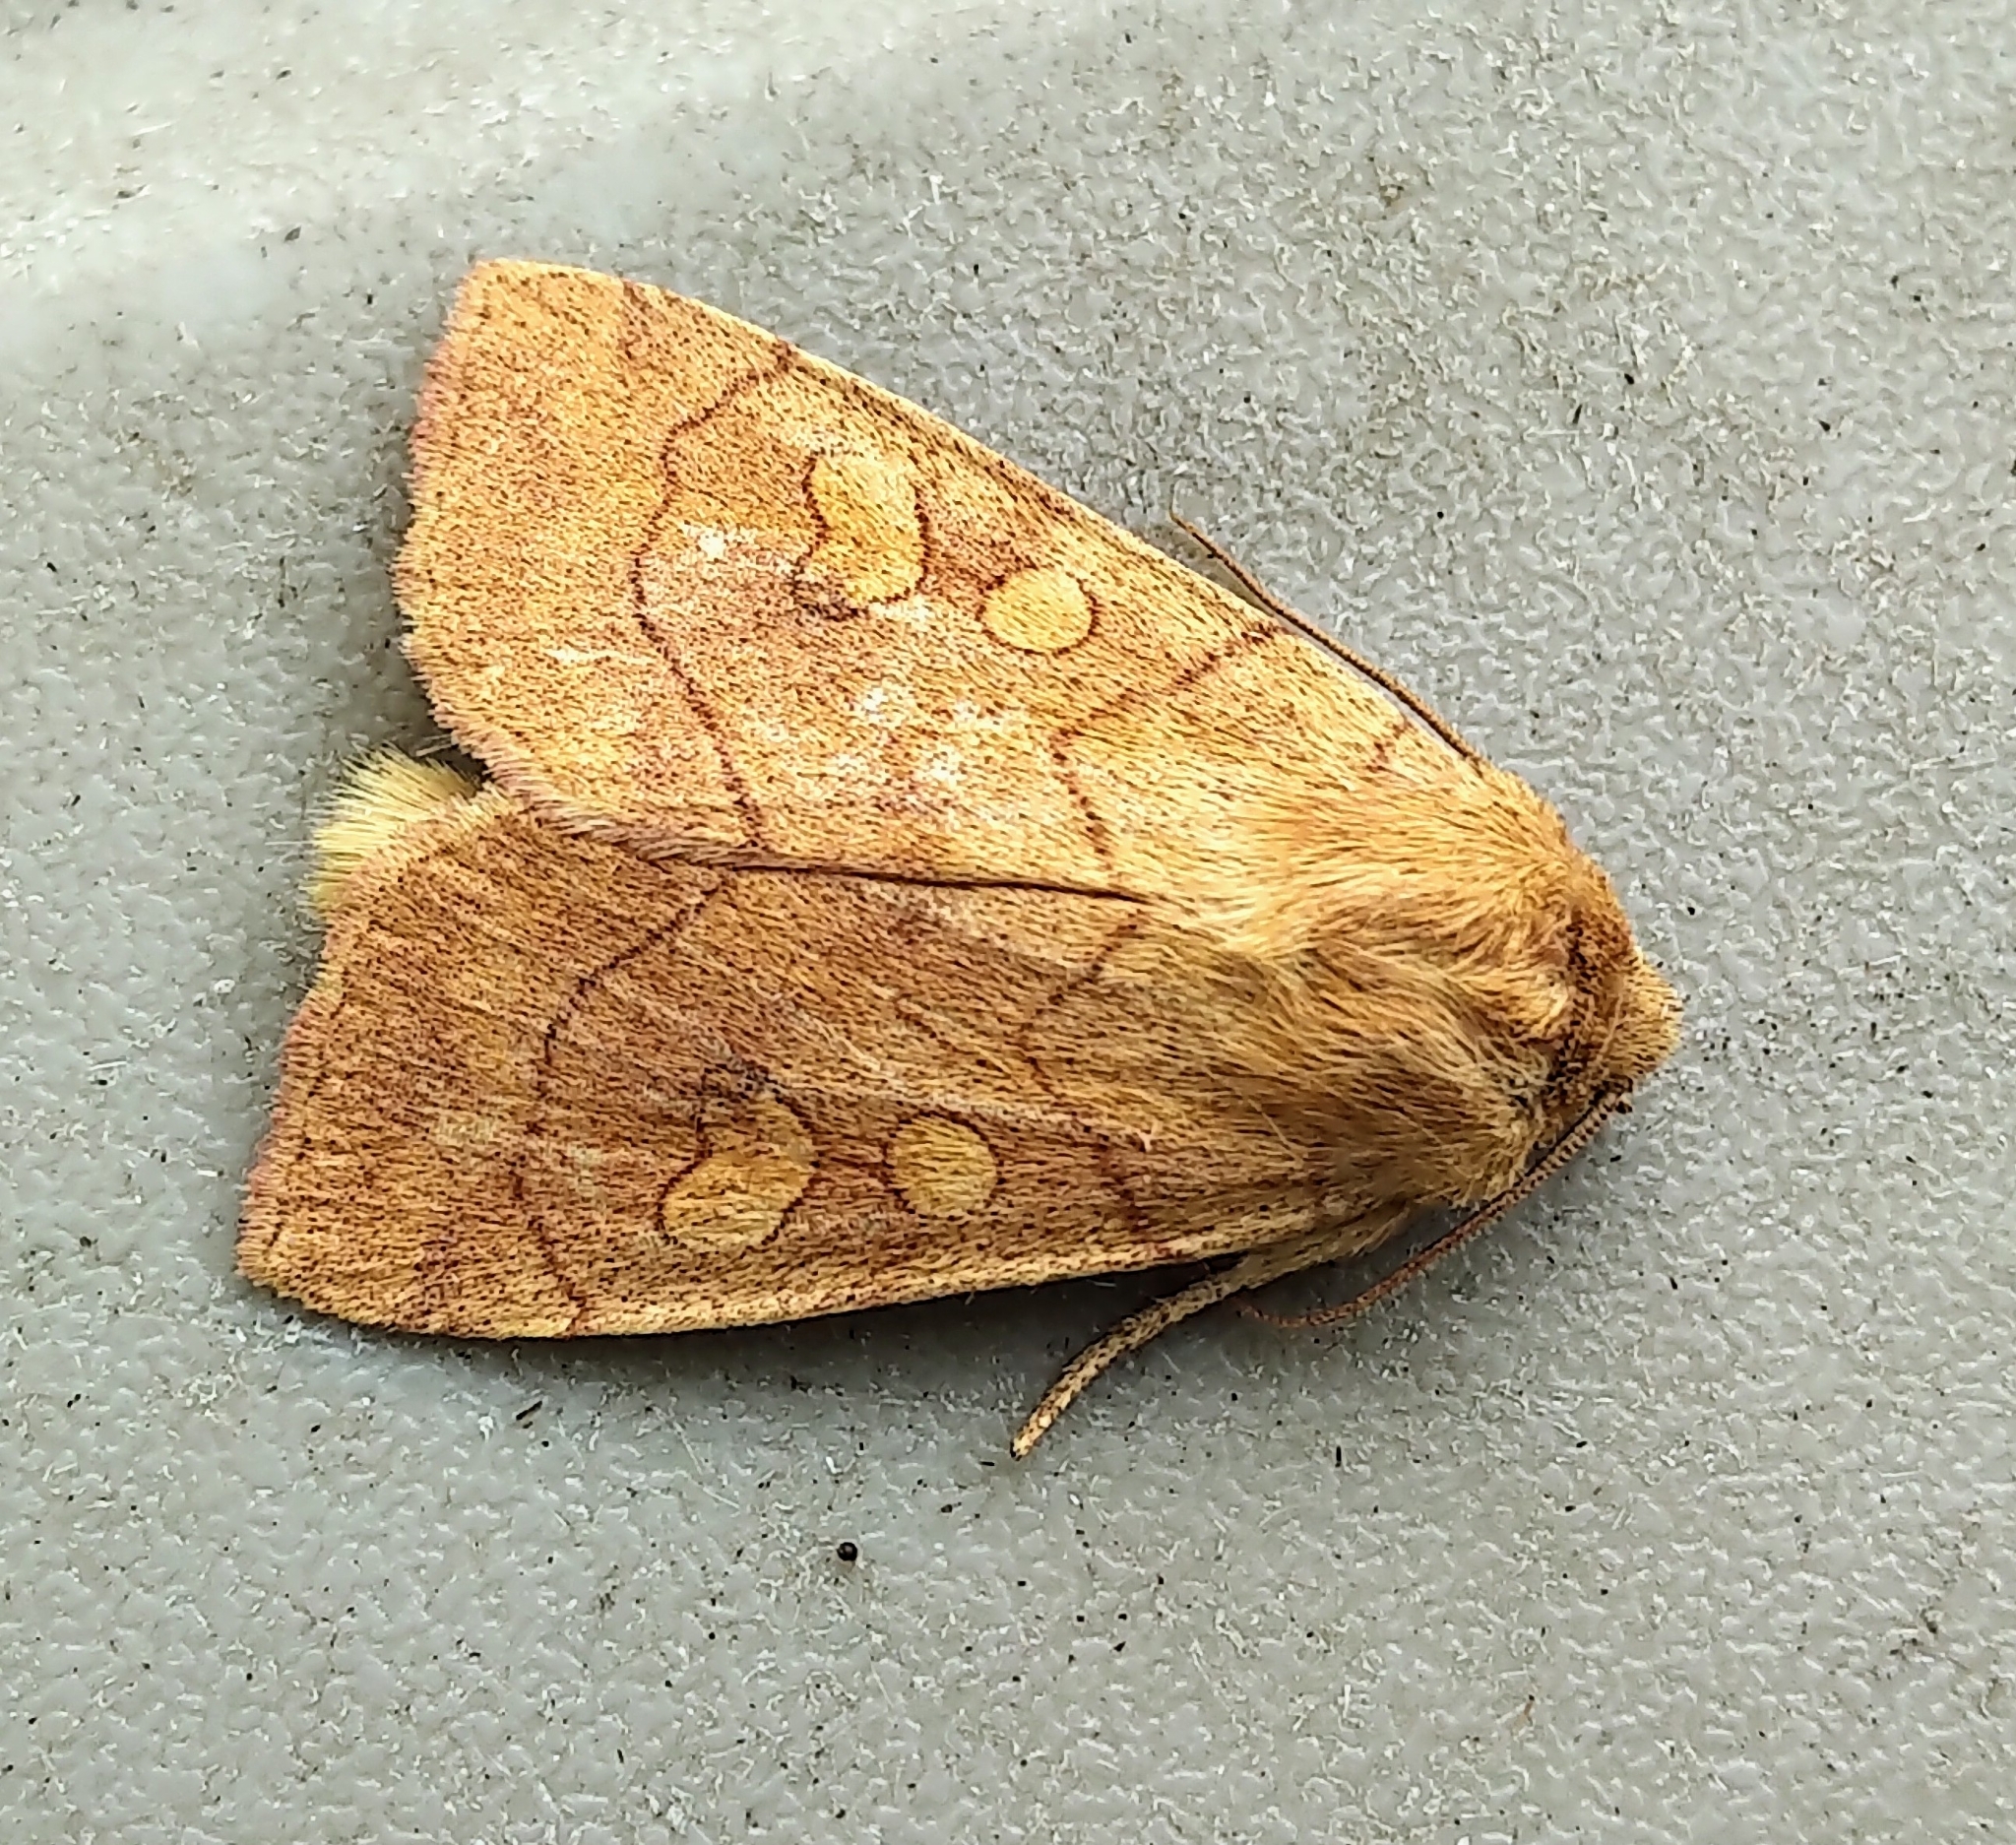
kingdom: Animalia
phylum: Arthropoda
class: Insecta
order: Lepidoptera
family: Noctuidae
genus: Enargia
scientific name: Enargia decolor
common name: Aspen twoleaf tier moth
